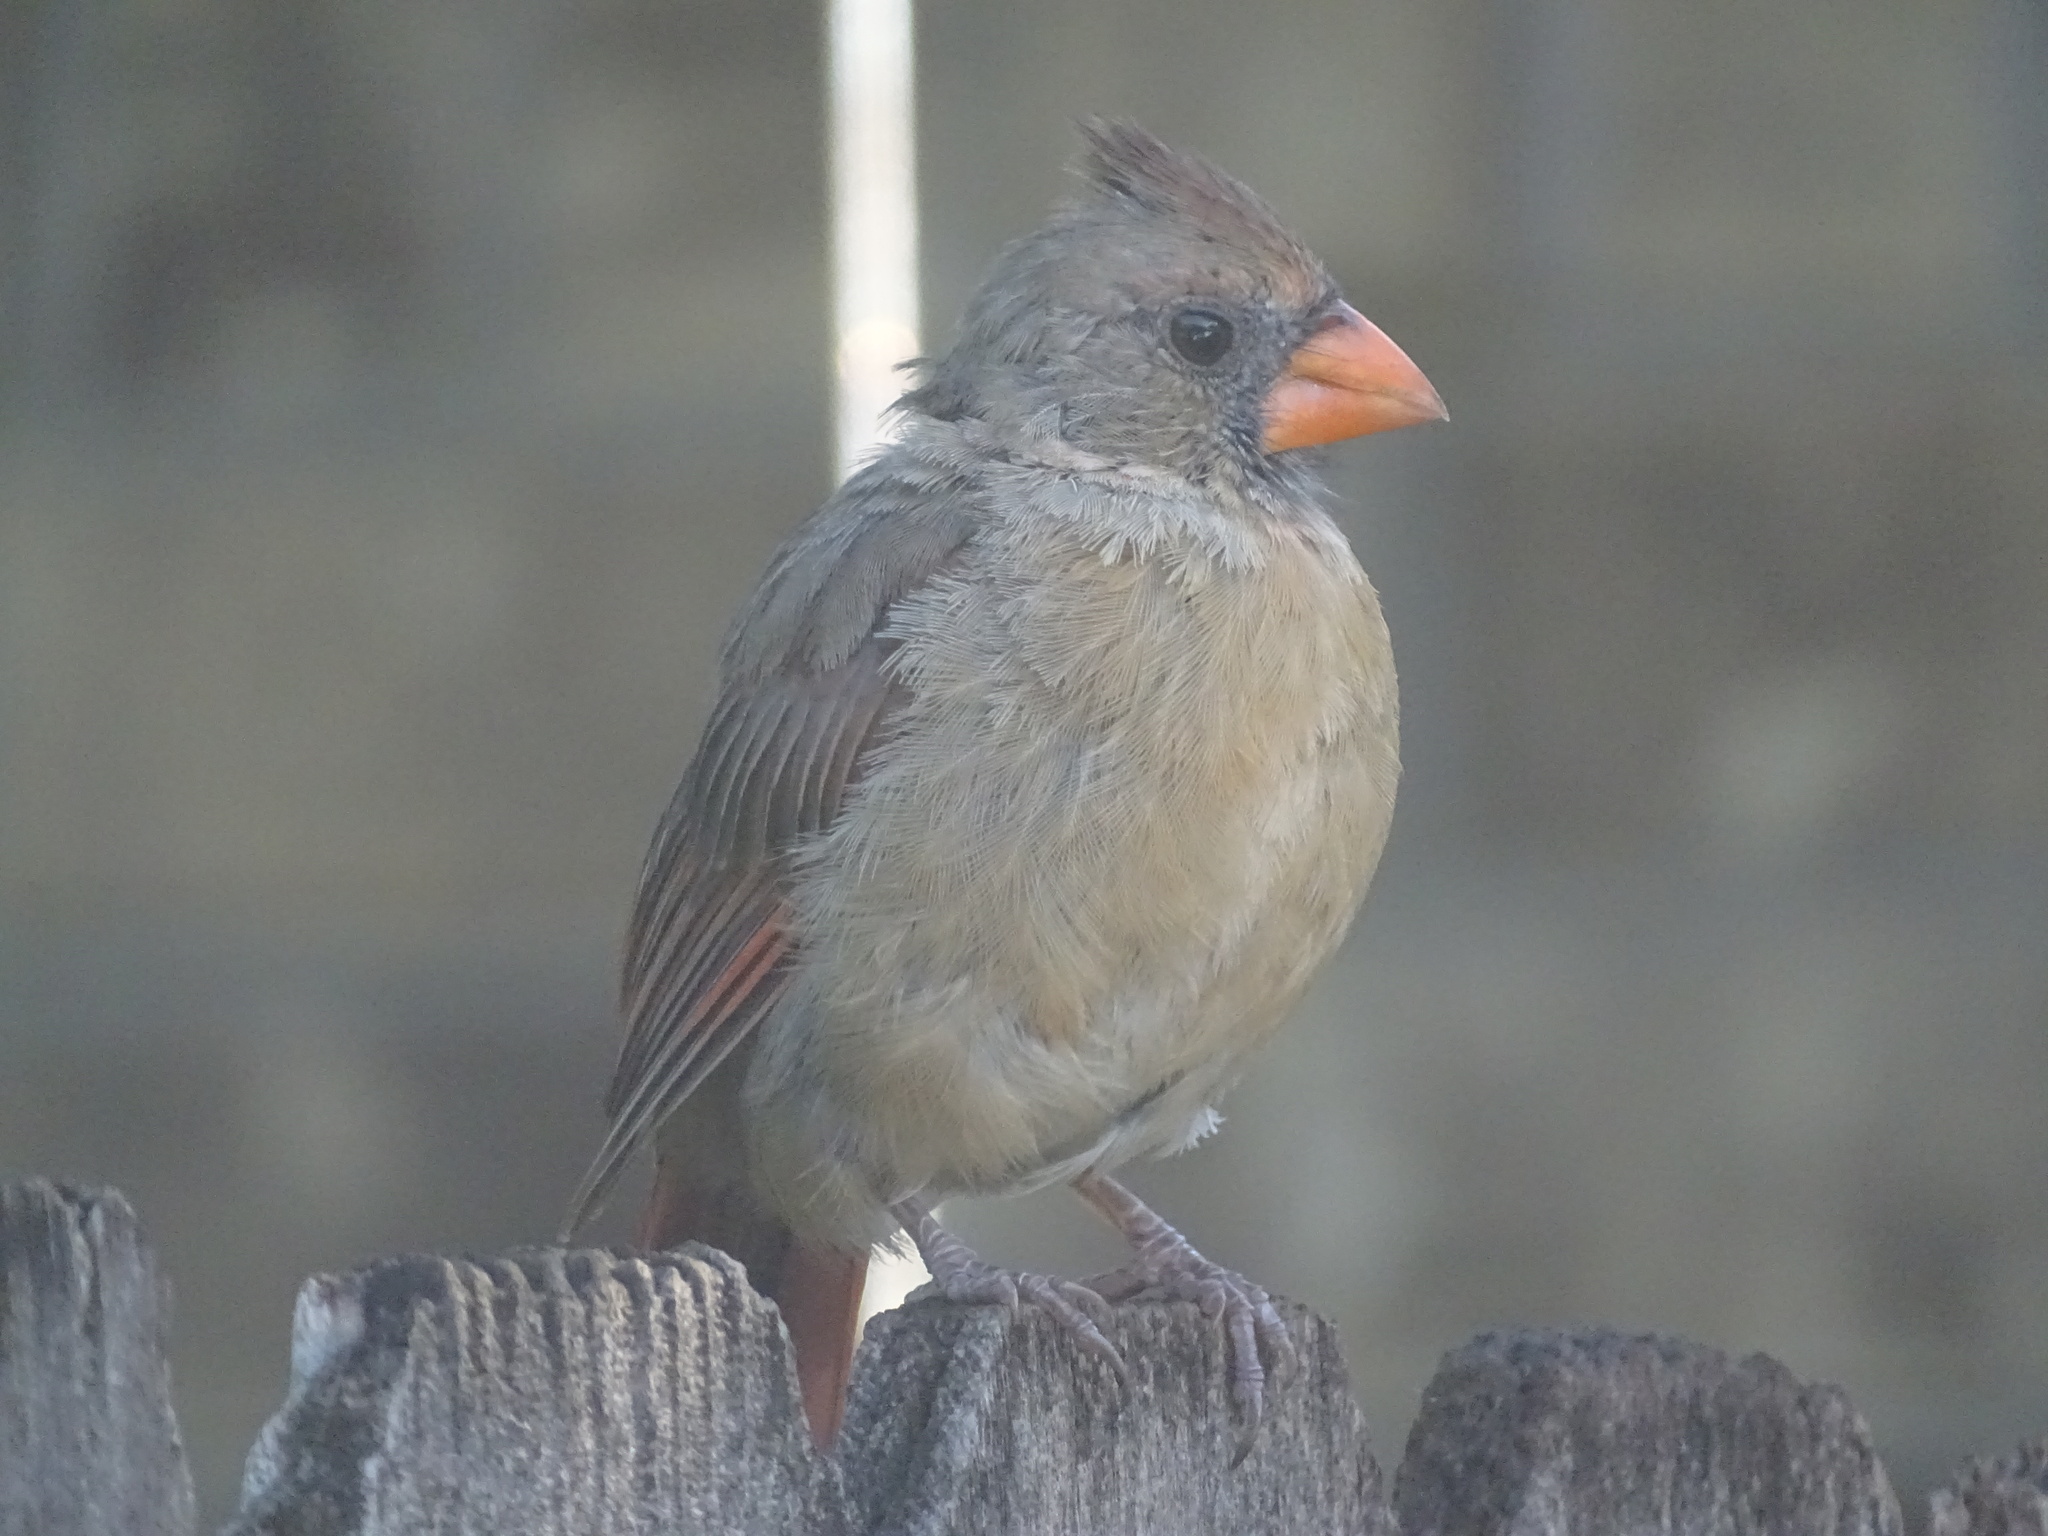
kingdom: Animalia
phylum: Chordata
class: Aves
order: Passeriformes
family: Cardinalidae
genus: Cardinalis
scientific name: Cardinalis cardinalis
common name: Northern cardinal
